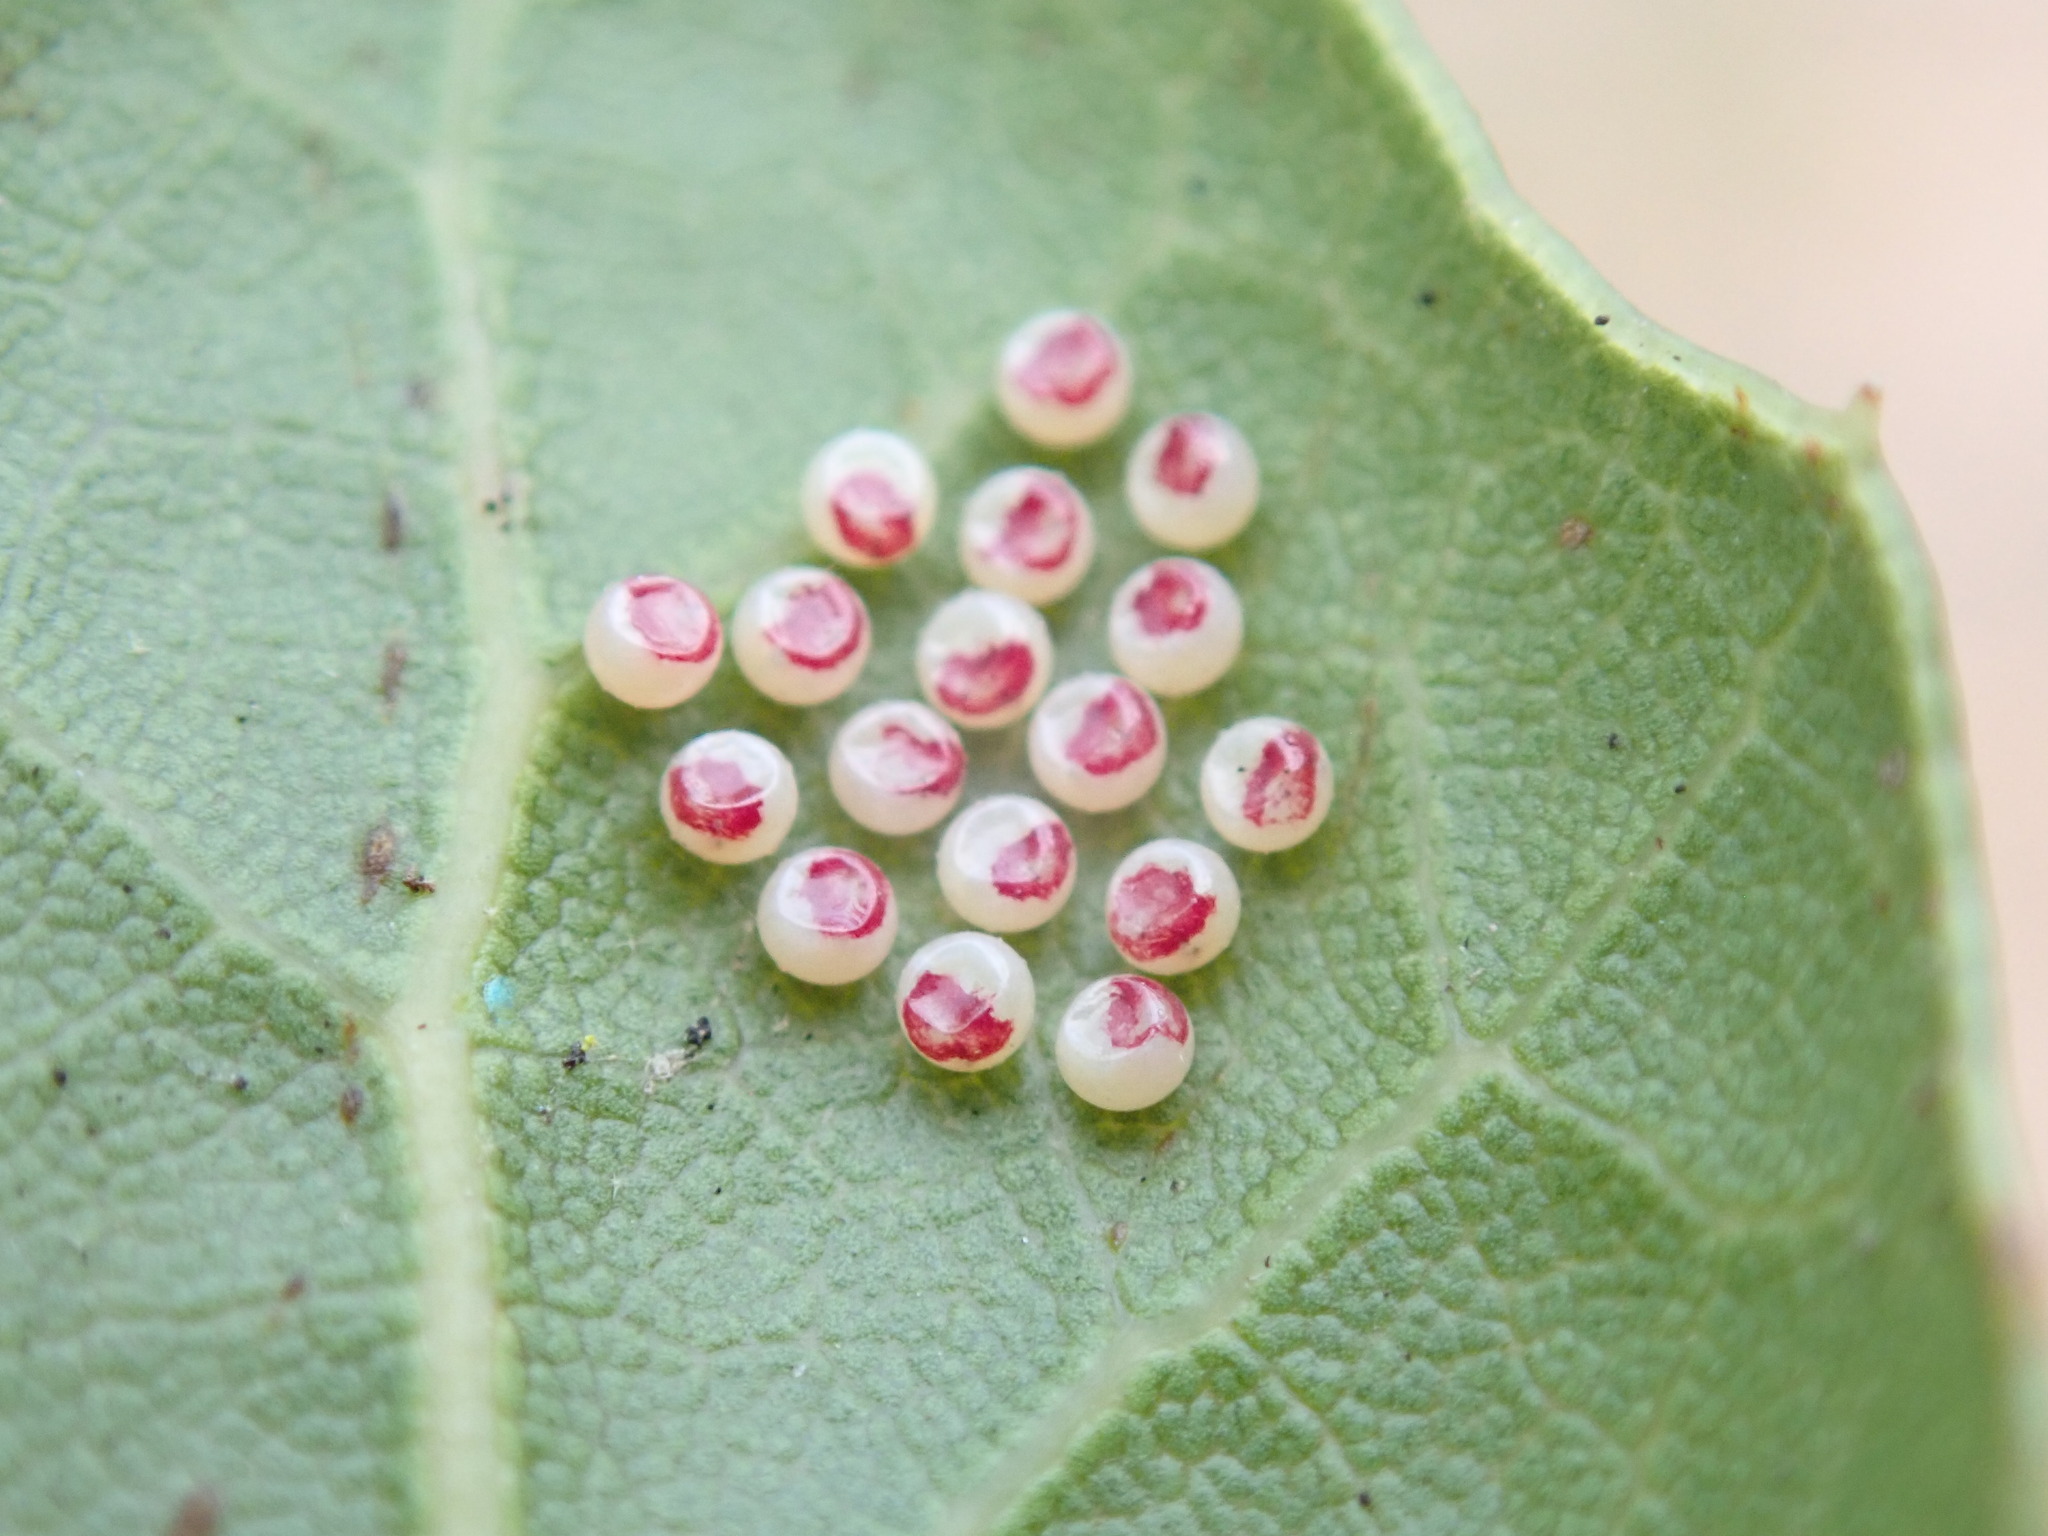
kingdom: Animalia
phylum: Arthropoda
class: Insecta
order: Lepidoptera
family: Notodontidae
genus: Phryganidia
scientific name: Phryganidia californica
